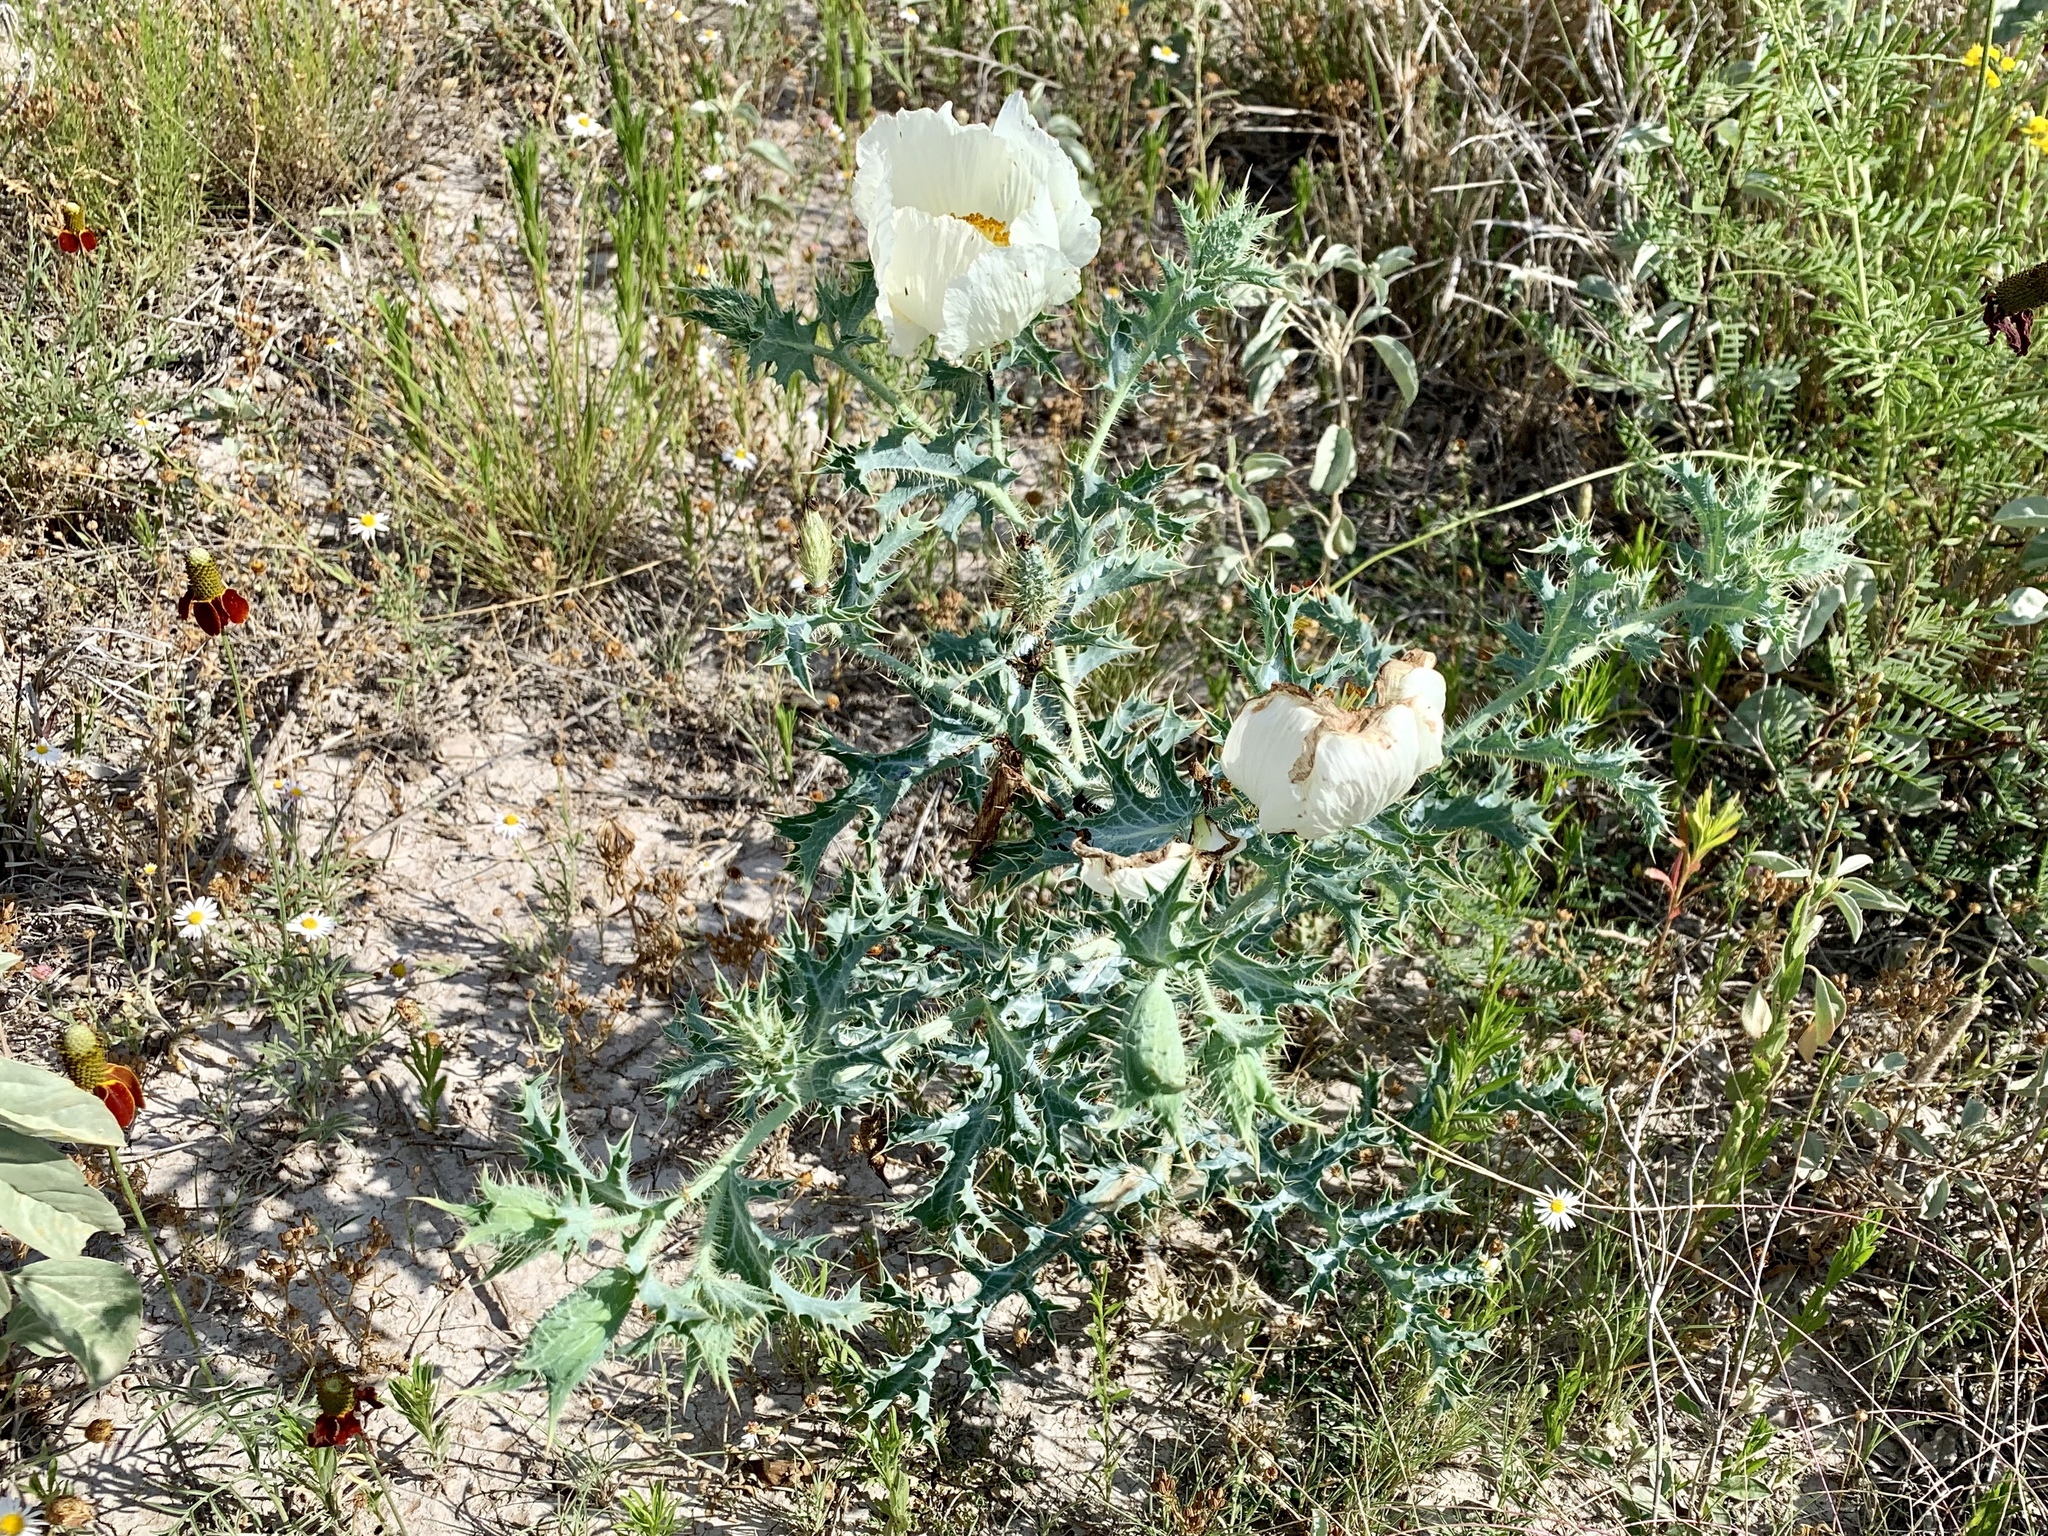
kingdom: Plantae
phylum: Tracheophyta
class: Magnoliopsida
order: Ranunculales
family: Papaveraceae
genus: Argemone
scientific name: Argemone squarrosa
